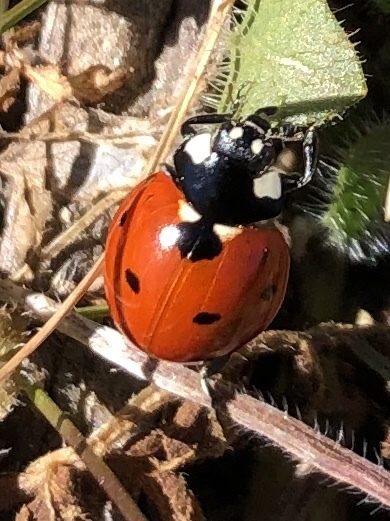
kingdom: Animalia
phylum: Arthropoda
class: Insecta
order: Coleoptera
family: Coccinellidae
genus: Coccinella
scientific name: Coccinella septempunctata
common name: Sevenspotted lady beetle
